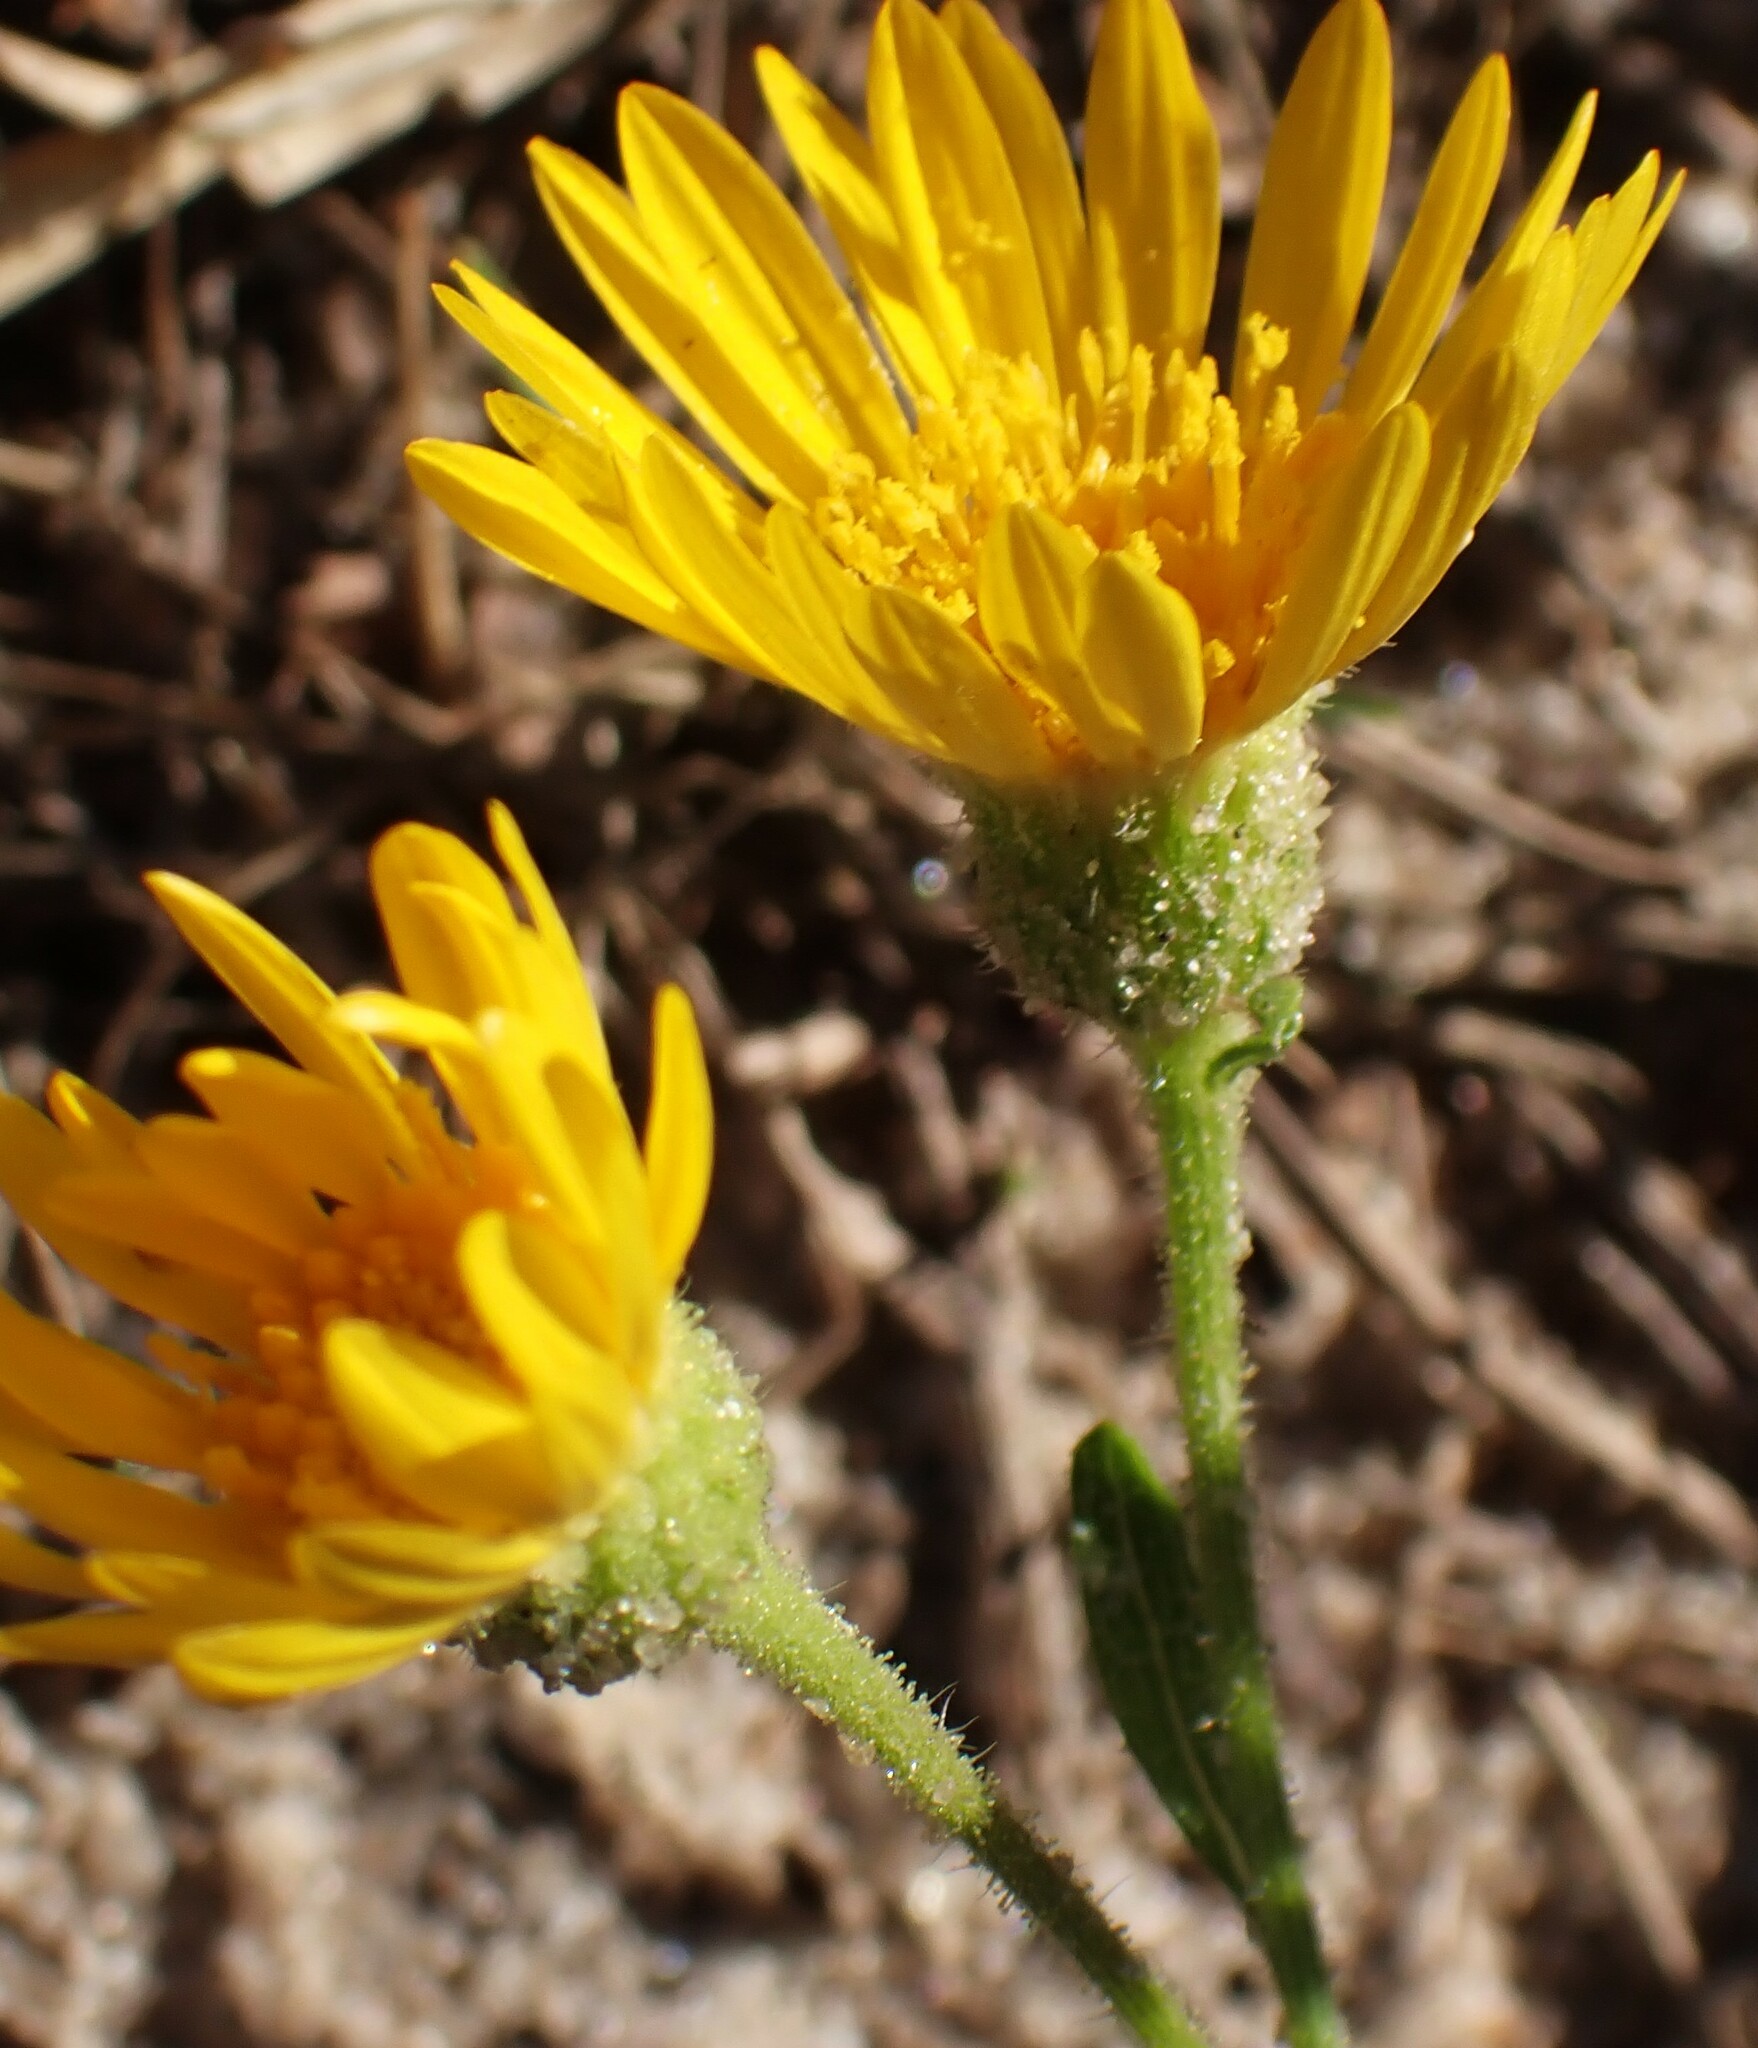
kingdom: Plantae
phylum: Tracheophyta
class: Magnoliopsida
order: Asterales
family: Asteraceae
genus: Heterotheca
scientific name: Heterotheca subaxillaris
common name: Camphorweed
